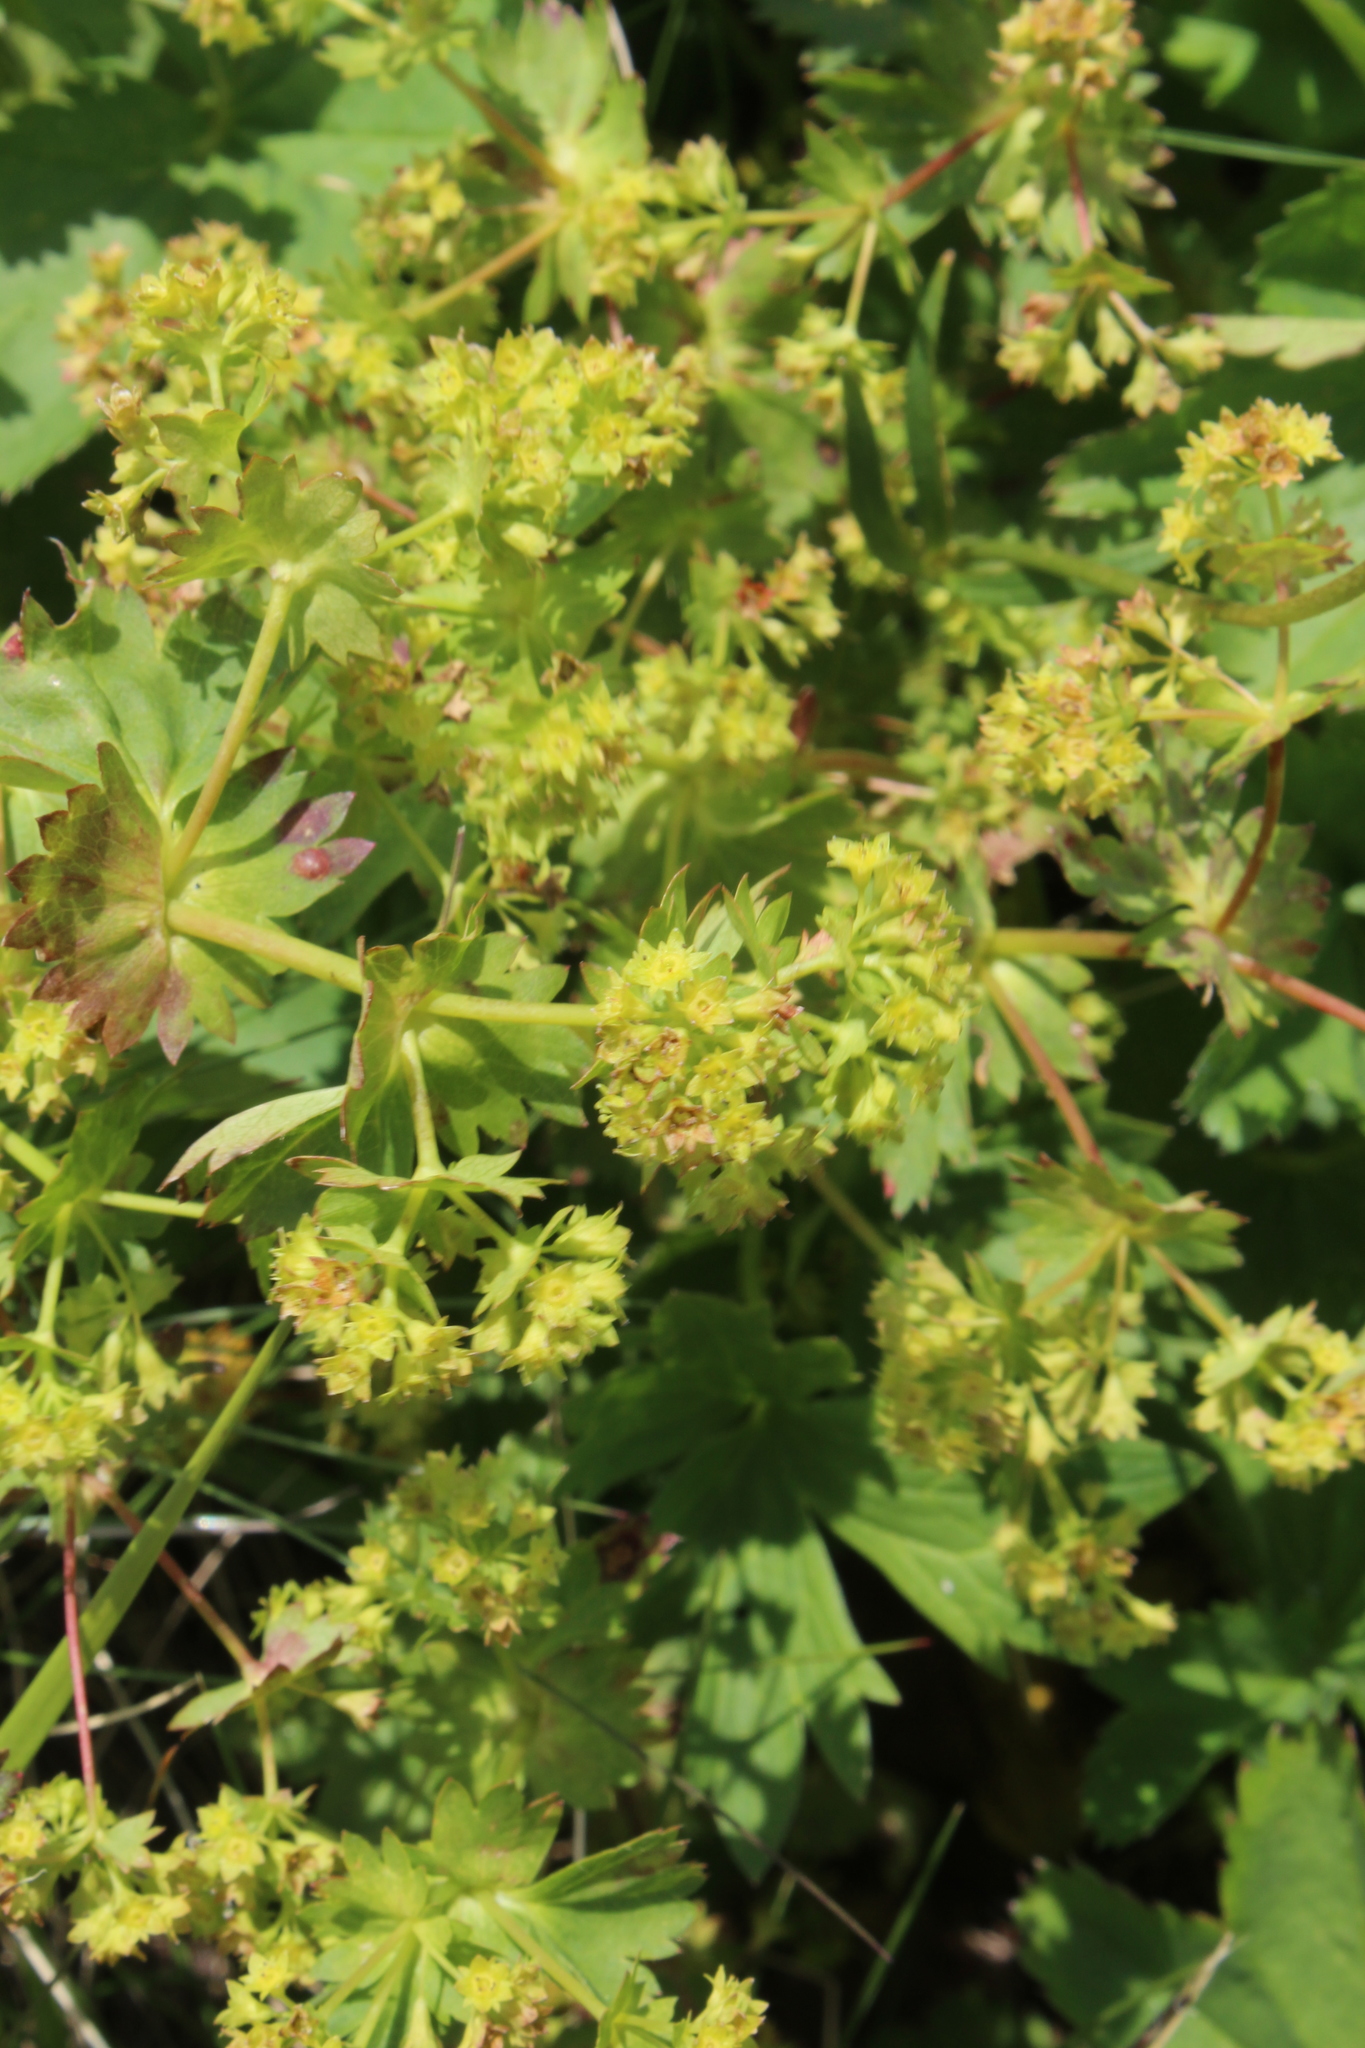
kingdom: Plantae
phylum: Tracheophyta
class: Magnoliopsida
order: Rosales
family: Rosaceae
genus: Alchemilla
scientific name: Alchemilla
